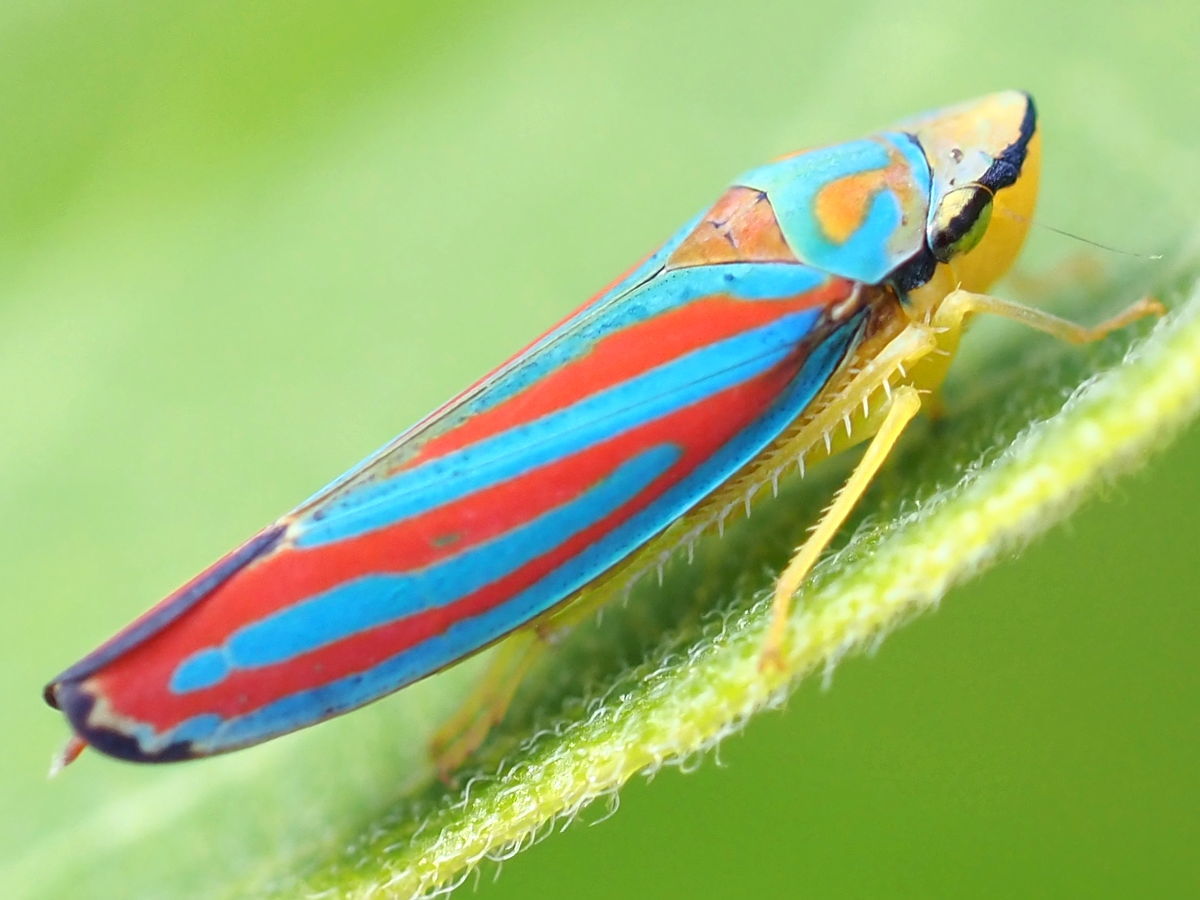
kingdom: Animalia
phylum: Arthropoda
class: Insecta
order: Hemiptera
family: Cicadellidae
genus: Graphocephala
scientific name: Graphocephala coccinea
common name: Candy-striped leafhopper
